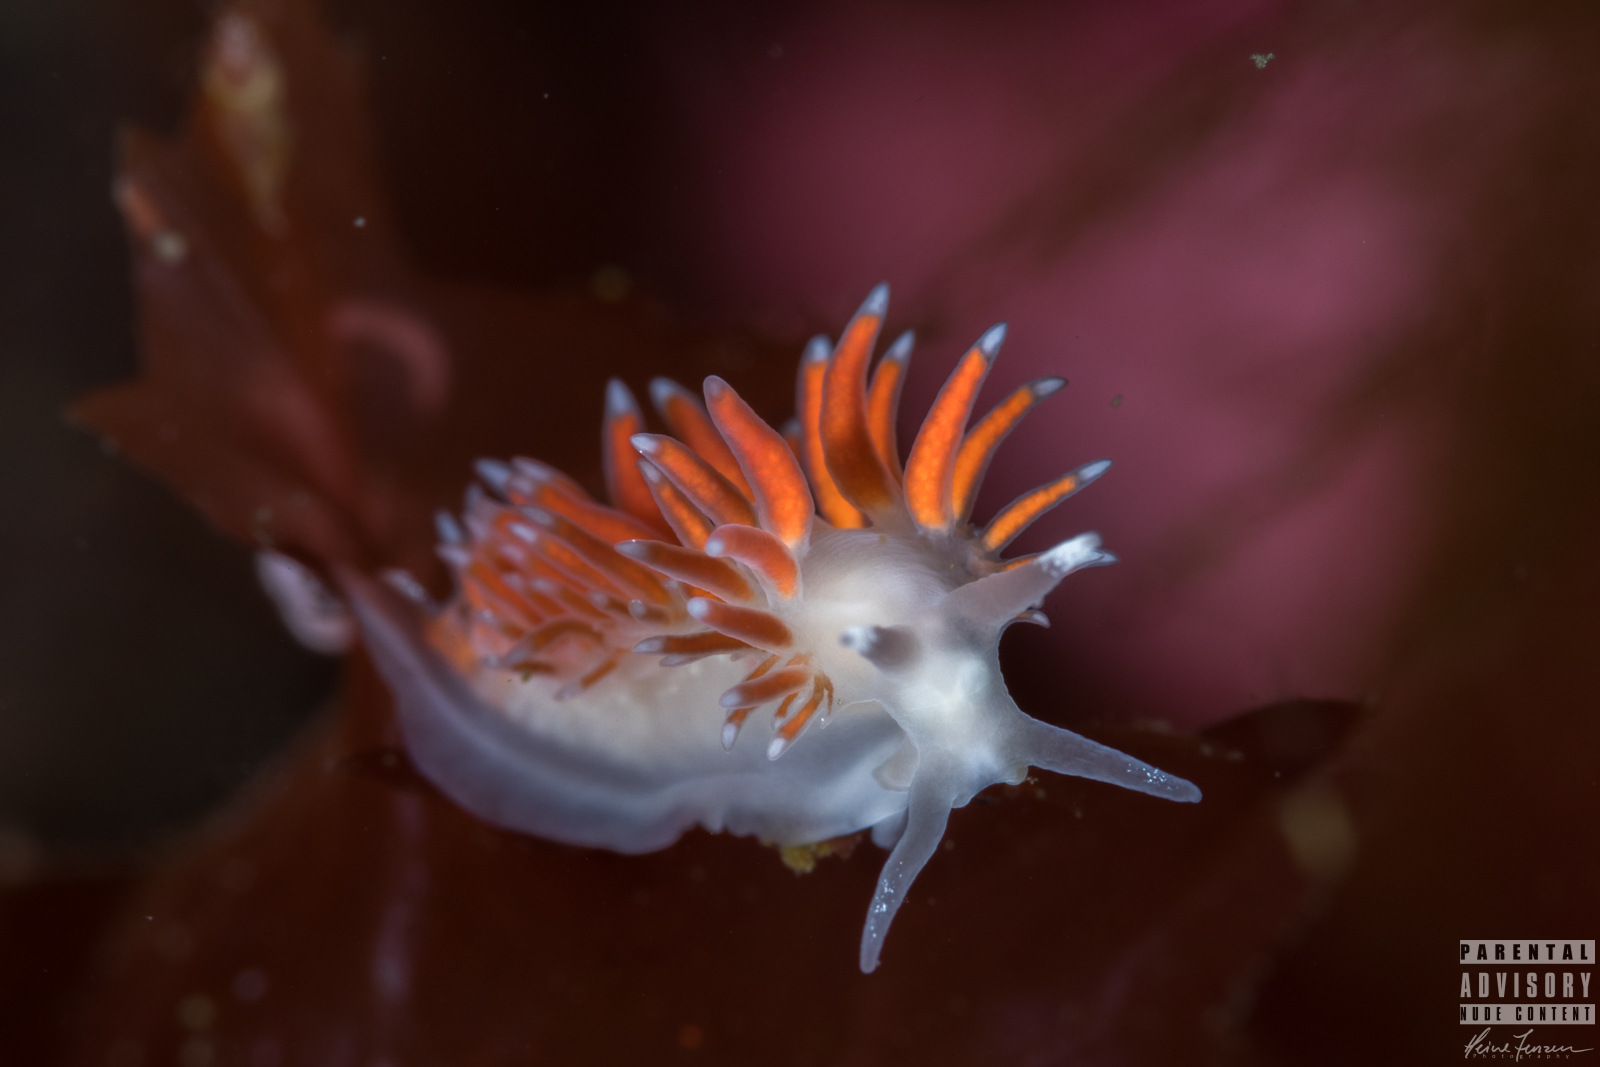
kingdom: Animalia
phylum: Mollusca
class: Gastropoda
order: Nudibranchia
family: Coryphellidae
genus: Coryphella
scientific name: Coryphella gracilis
